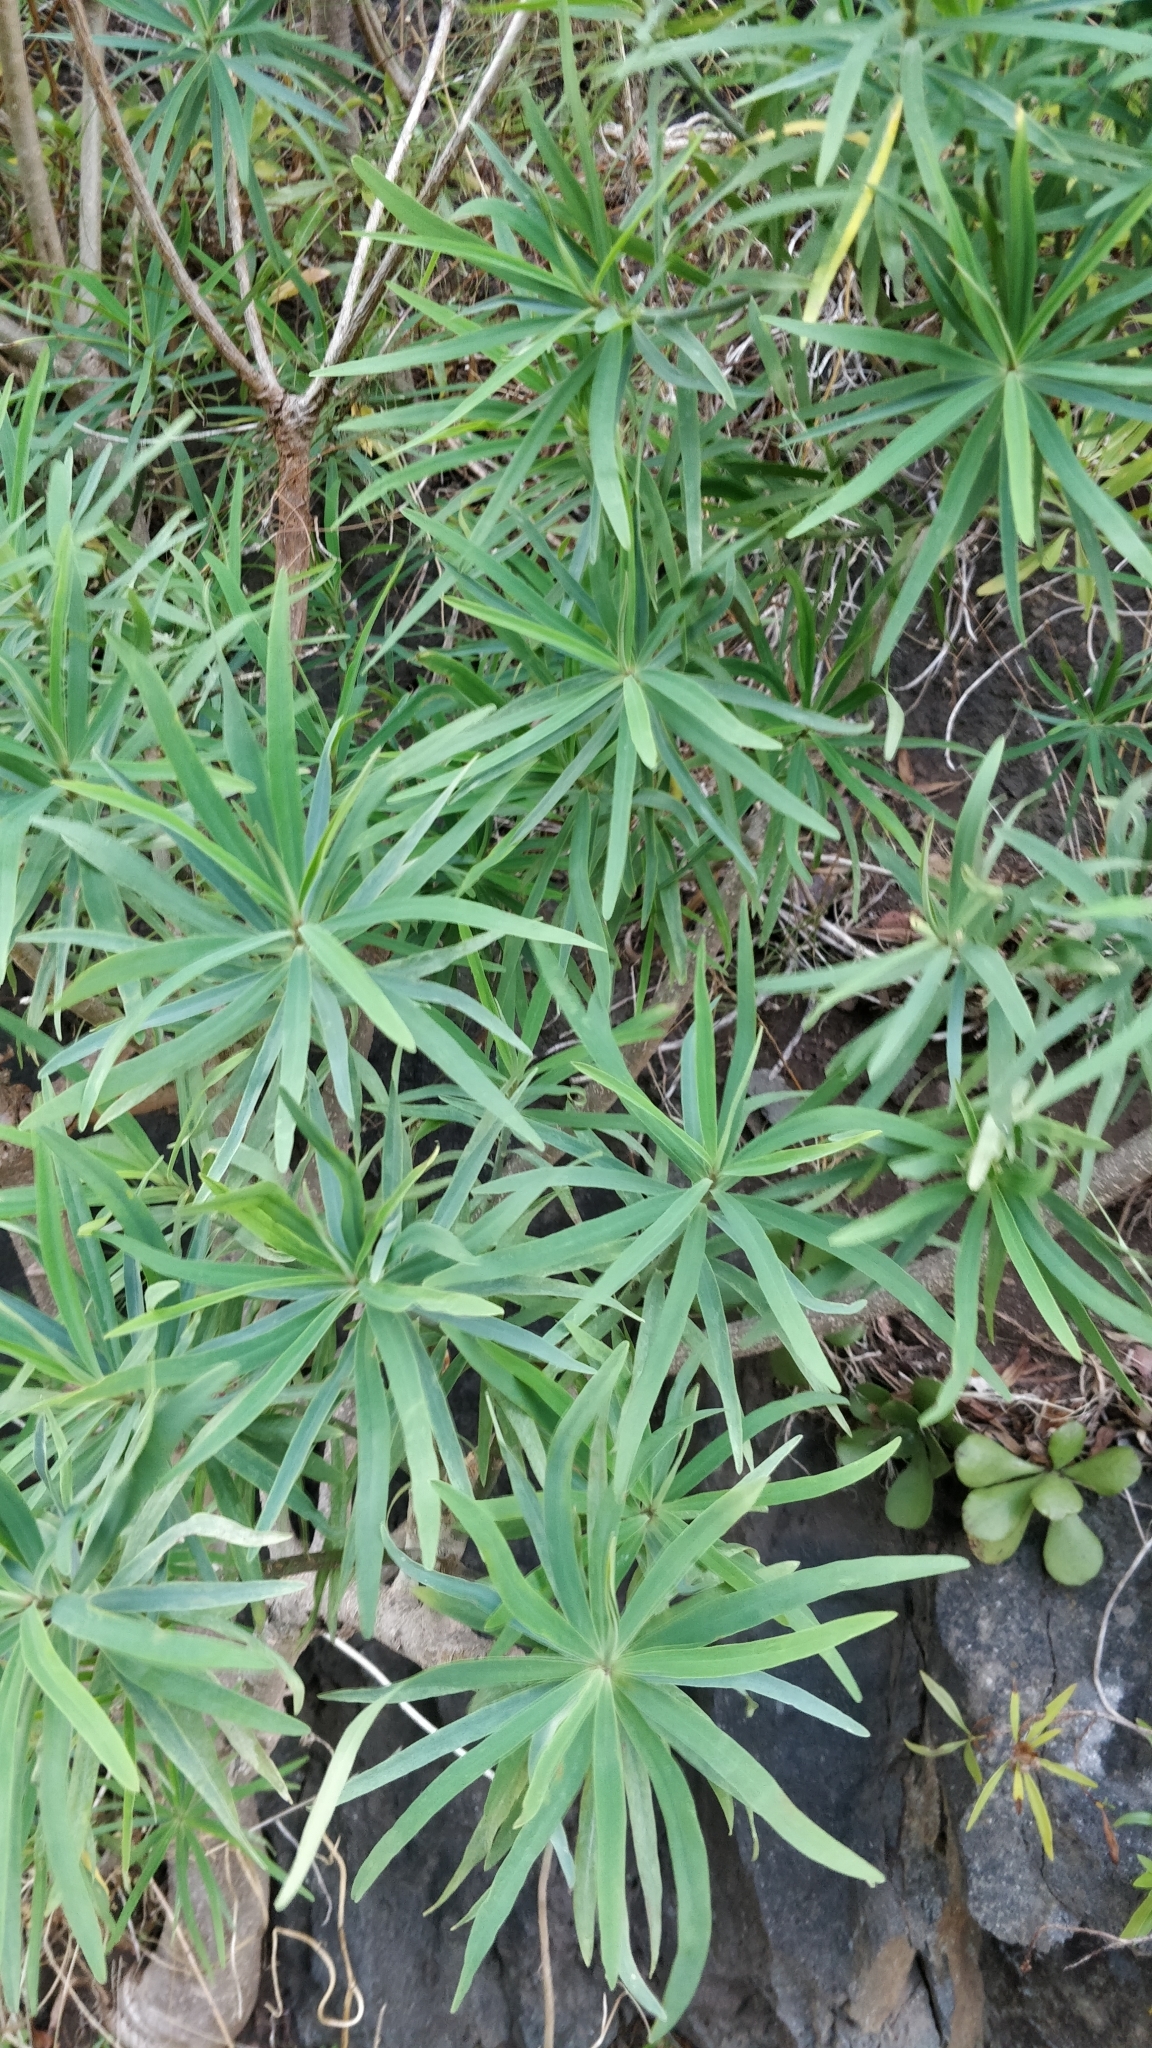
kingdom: Plantae
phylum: Tracheophyta
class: Magnoliopsida
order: Malpighiales
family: Euphorbiaceae
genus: Euphorbia
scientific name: Euphorbia piscatoria
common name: Fish-stunning spurge
